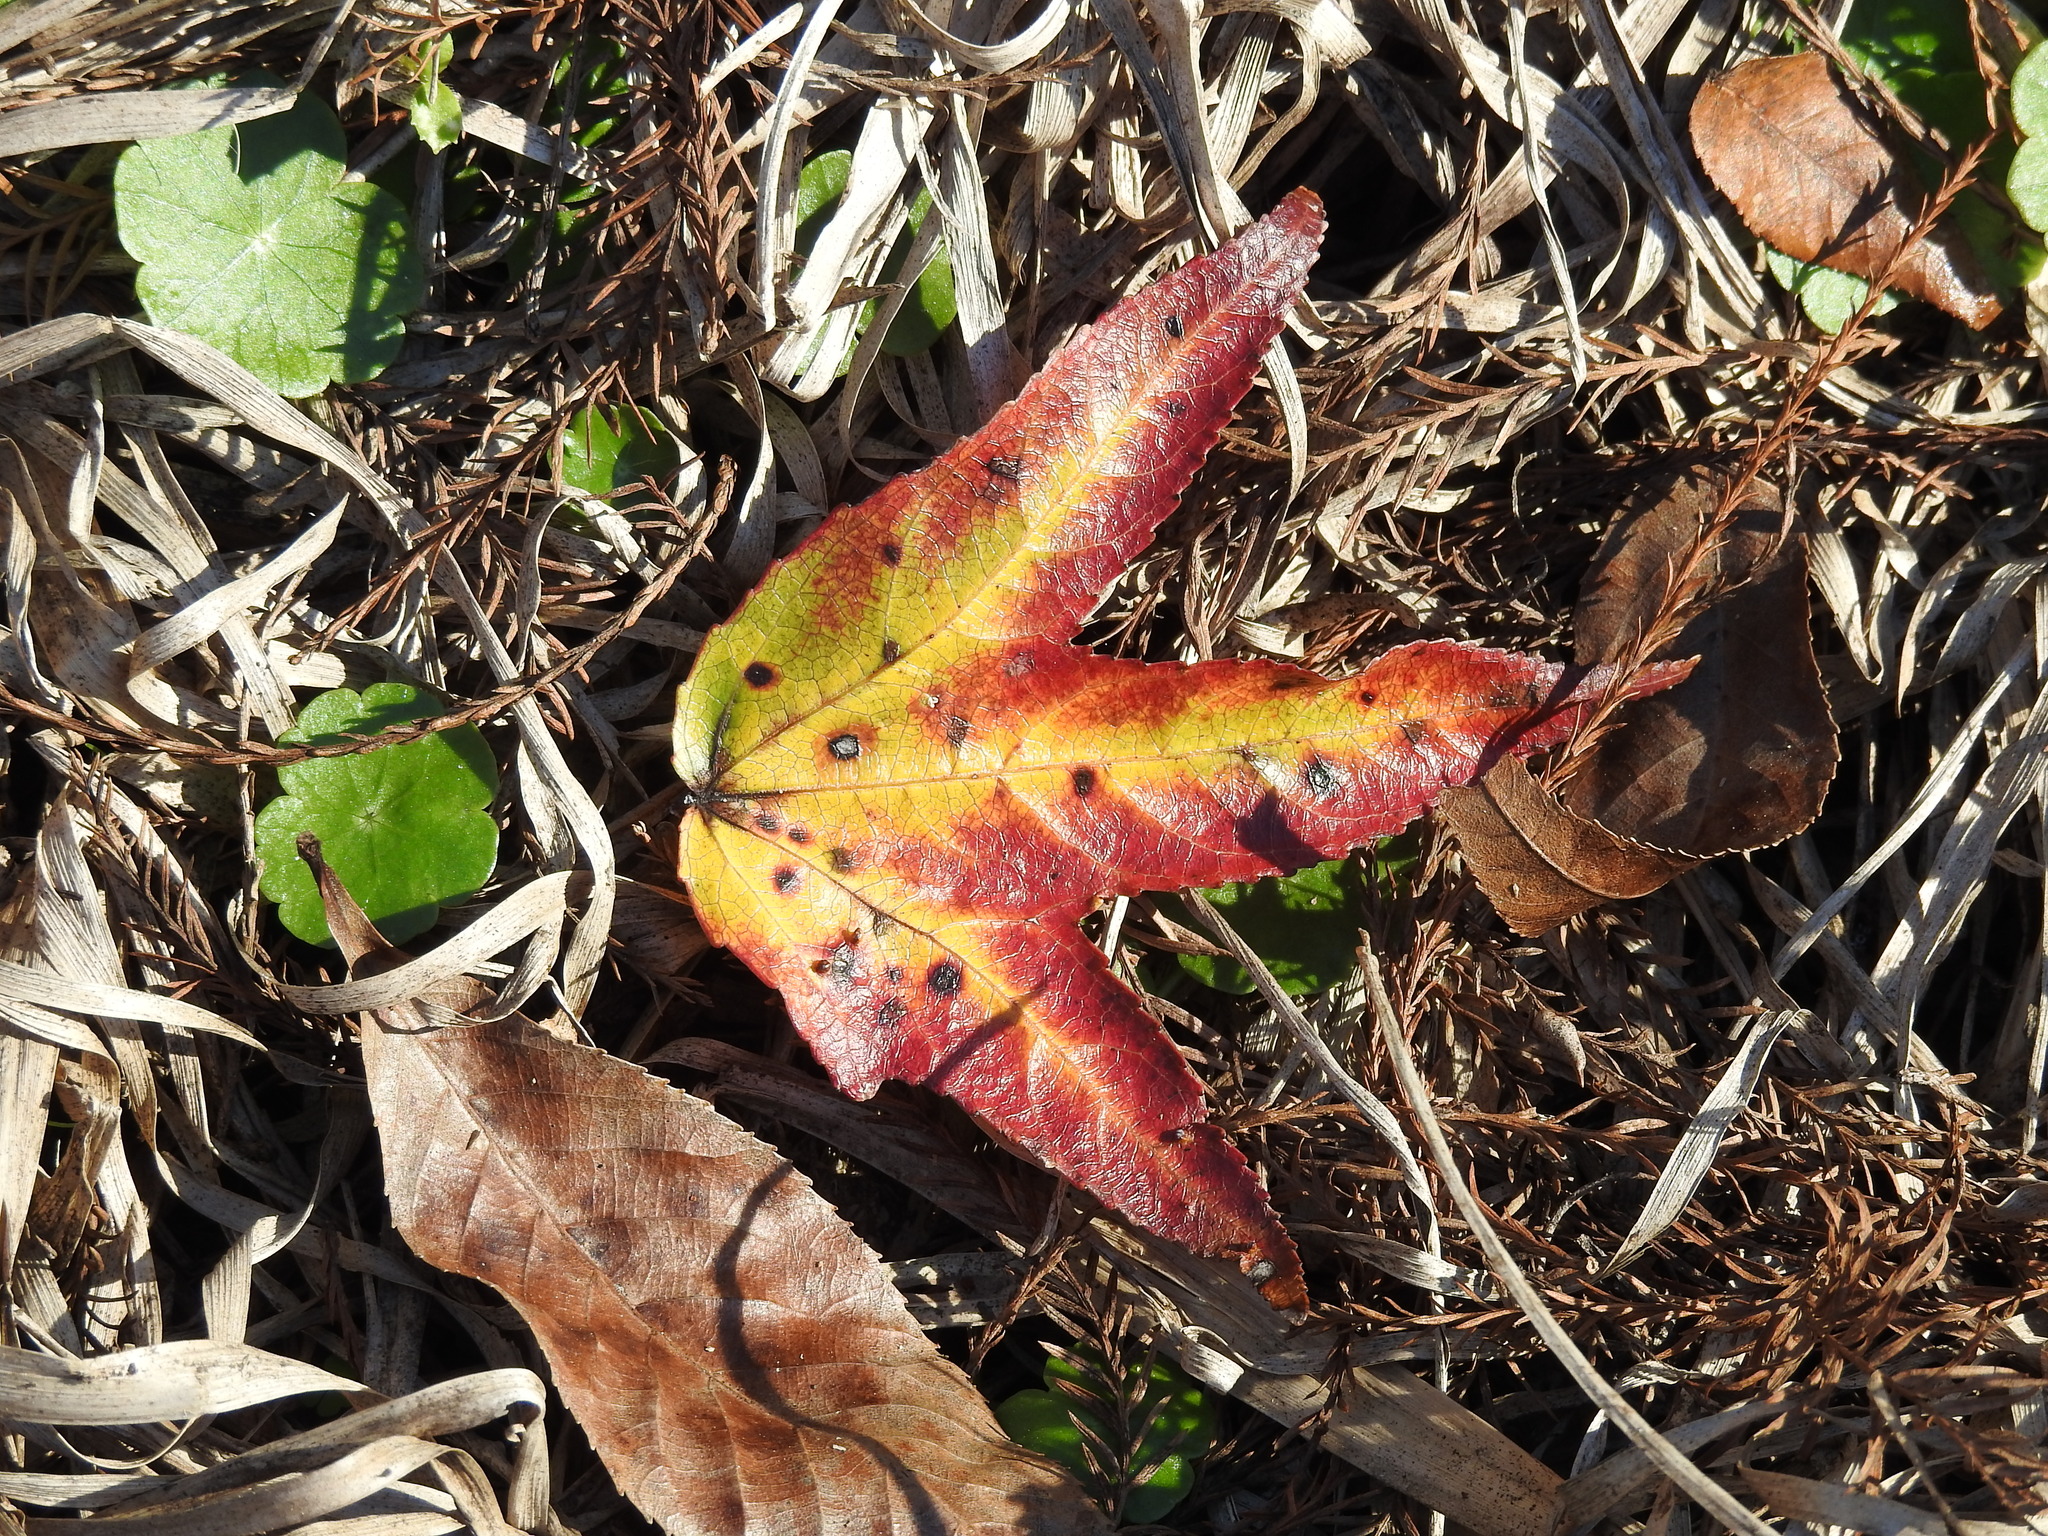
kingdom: Plantae
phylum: Tracheophyta
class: Magnoliopsida
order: Saxifragales
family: Altingiaceae
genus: Liquidambar
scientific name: Liquidambar styraciflua
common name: Sweet gum
